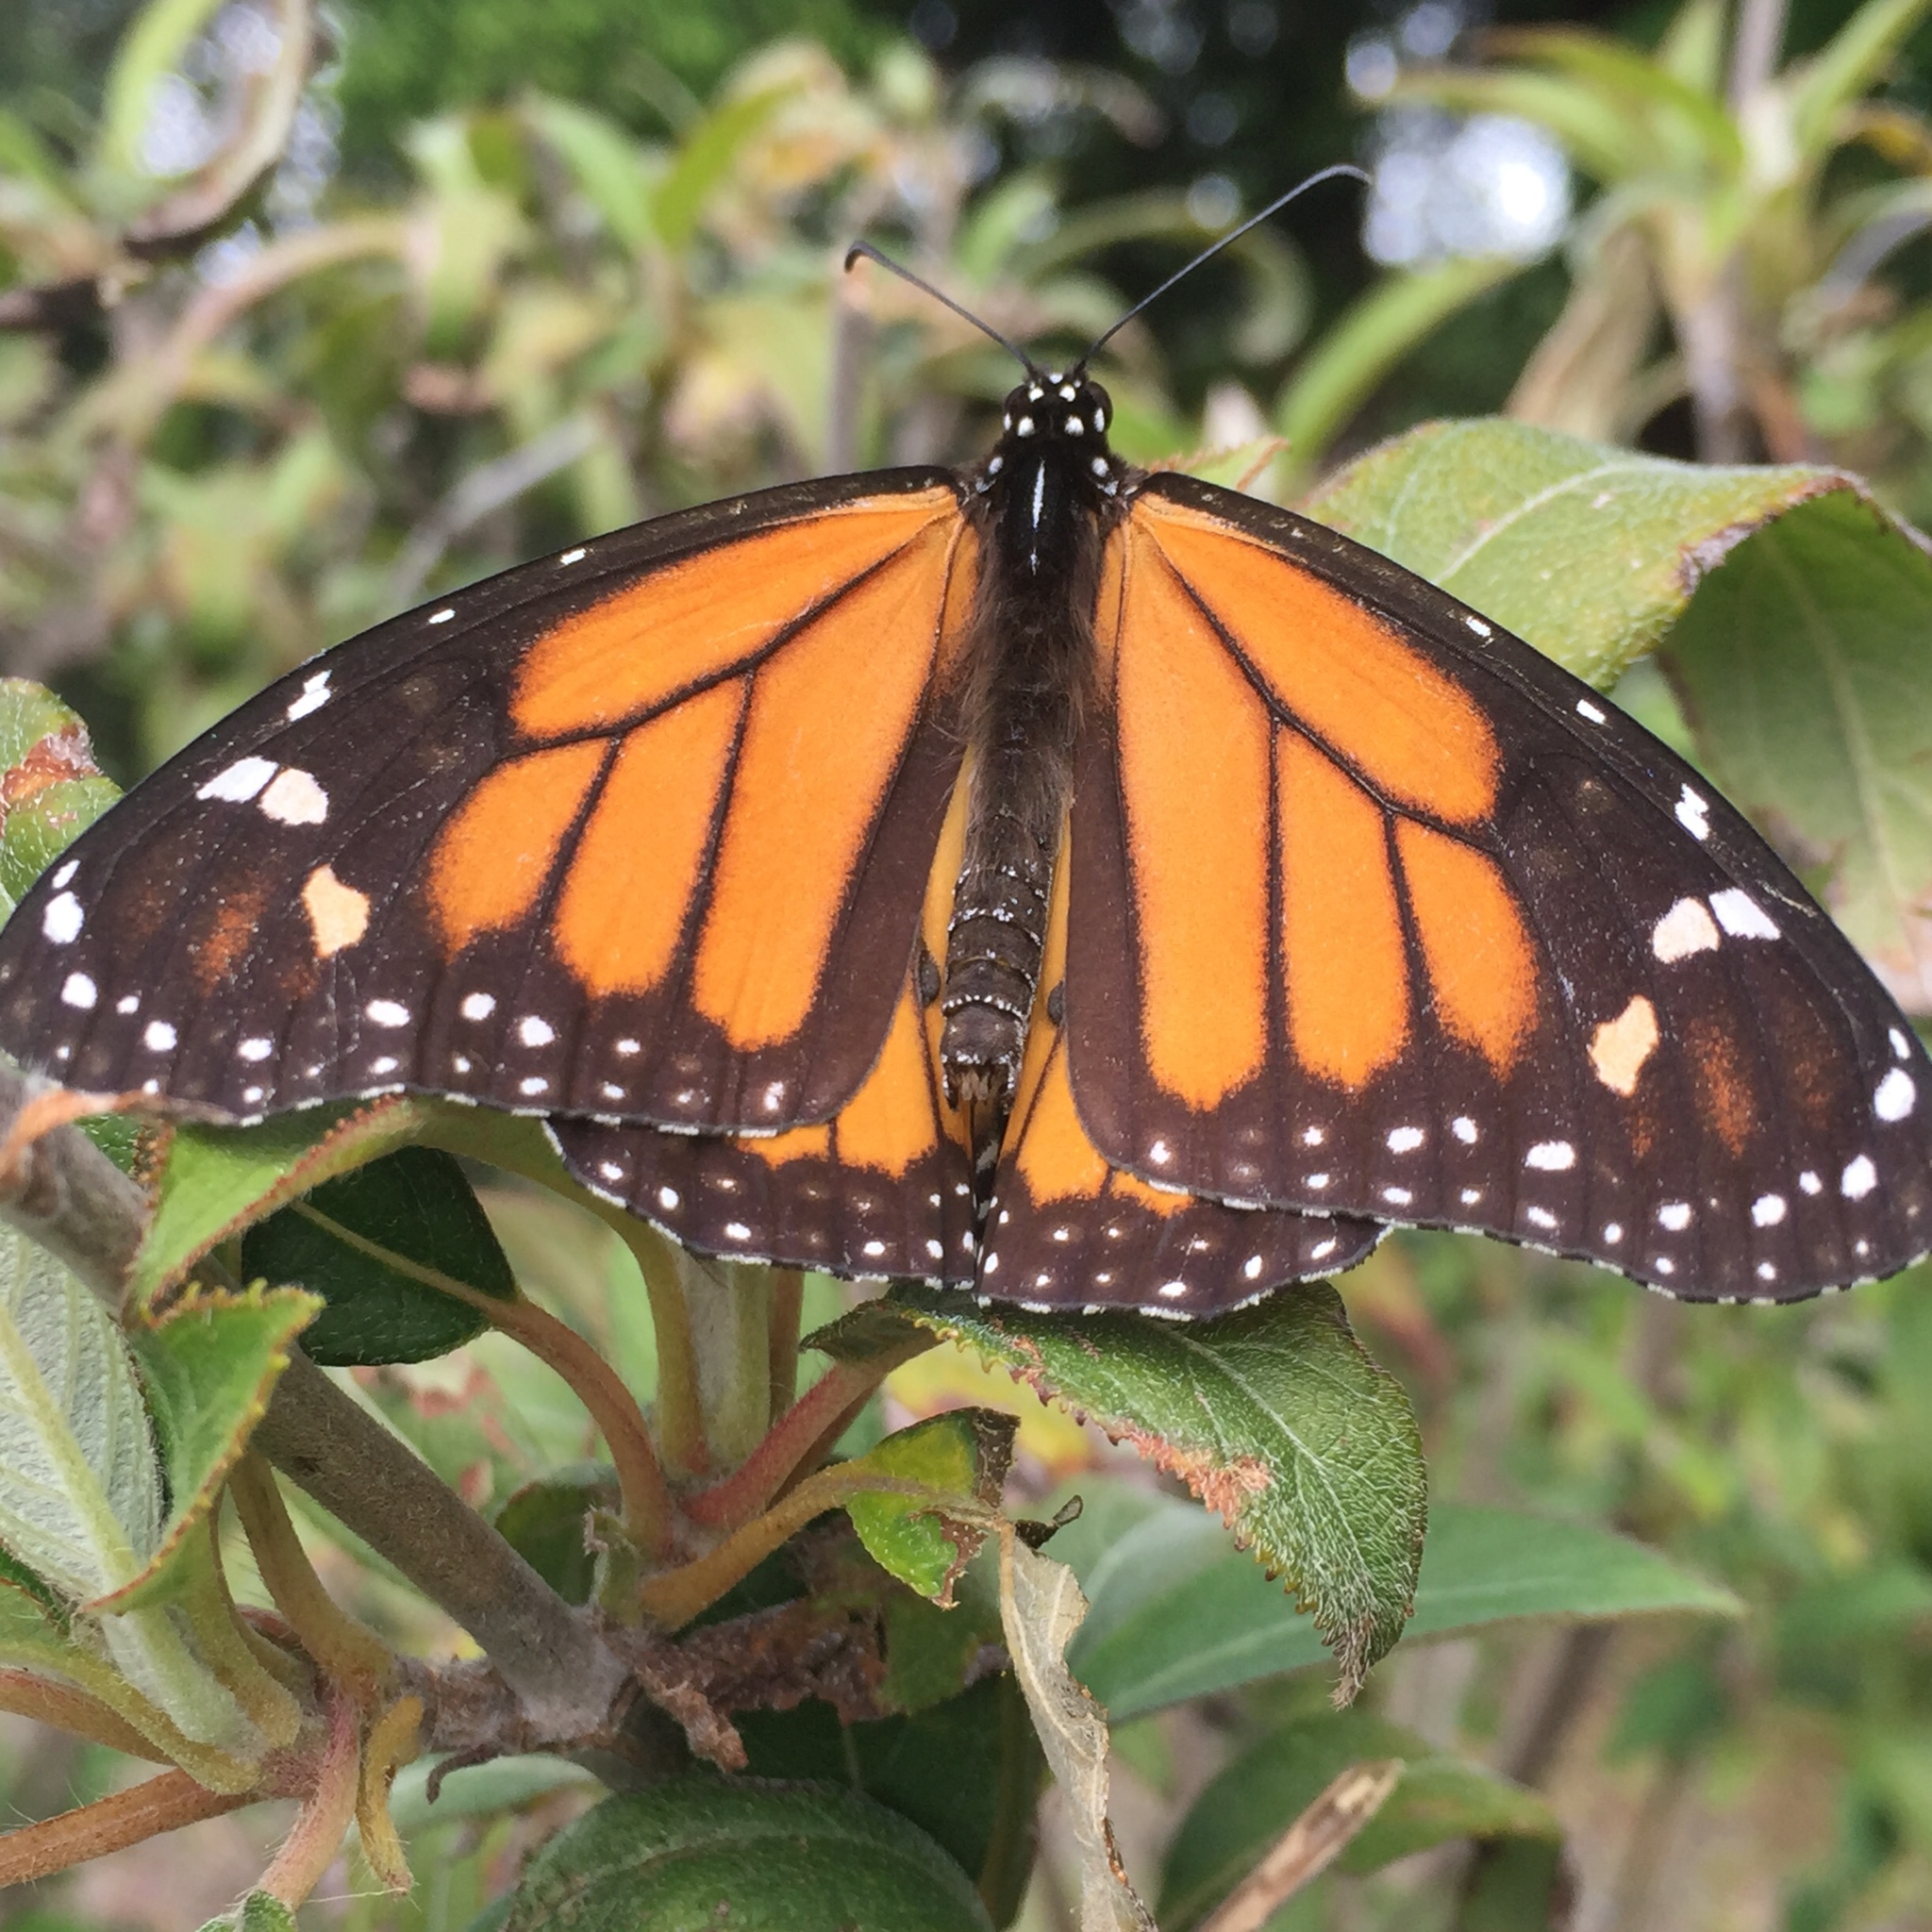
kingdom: Animalia
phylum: Arthropoda
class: Insecta
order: Lepidoptera
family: Nymphalidae
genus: Danaus
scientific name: Danaus plexippus
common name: Monarch
